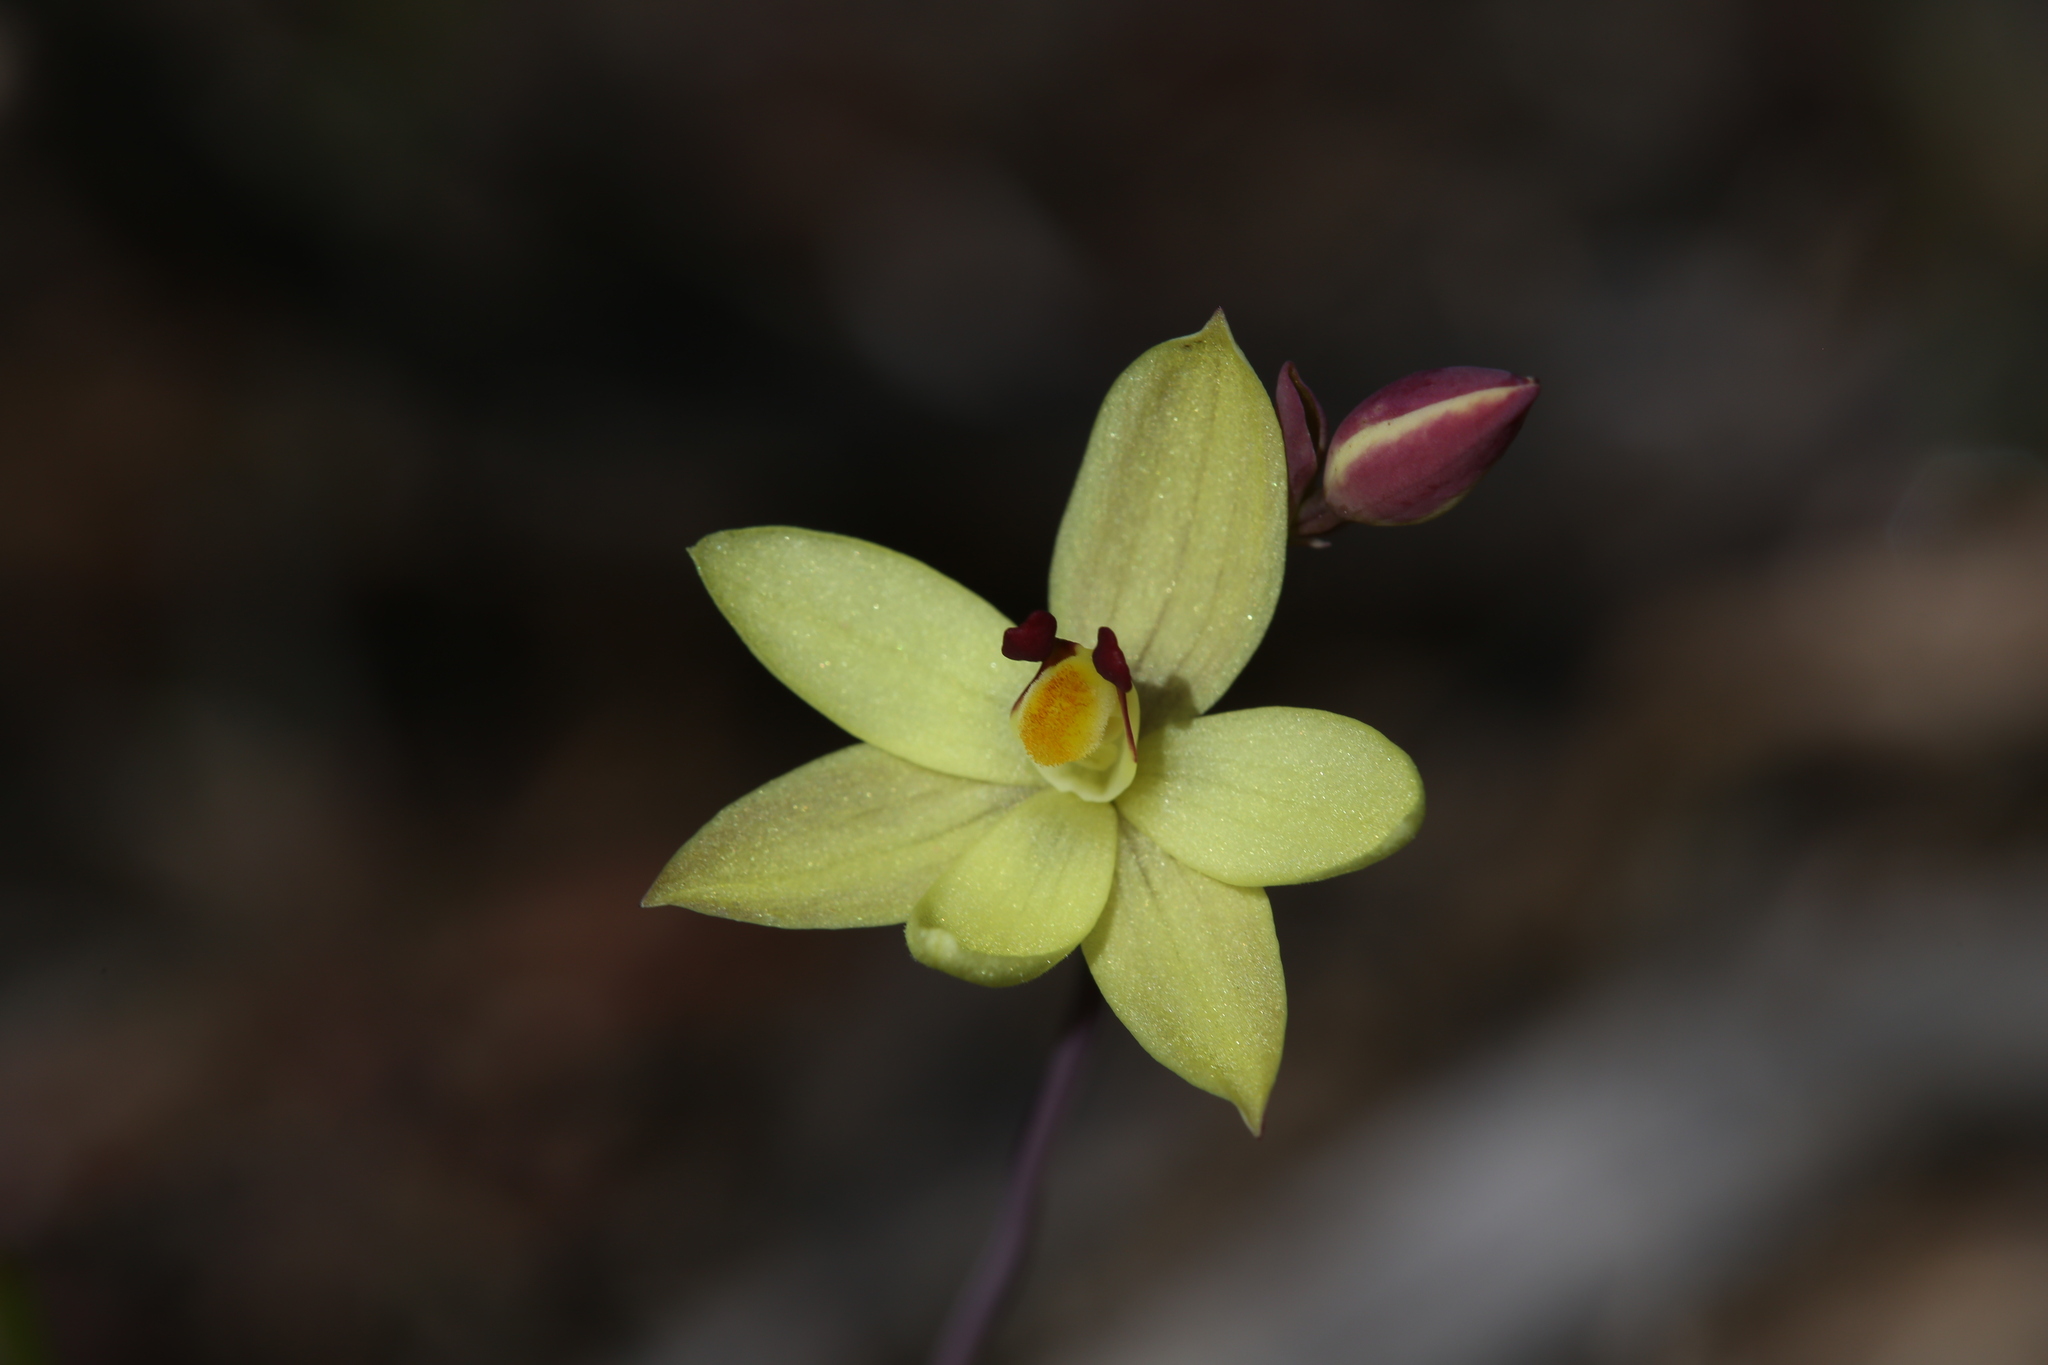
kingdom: Plantae
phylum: Tracheophyta
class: Liliopsida
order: Asparagales
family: Orchidaceae
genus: Thelymitra
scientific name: Thelymitra antennifera
